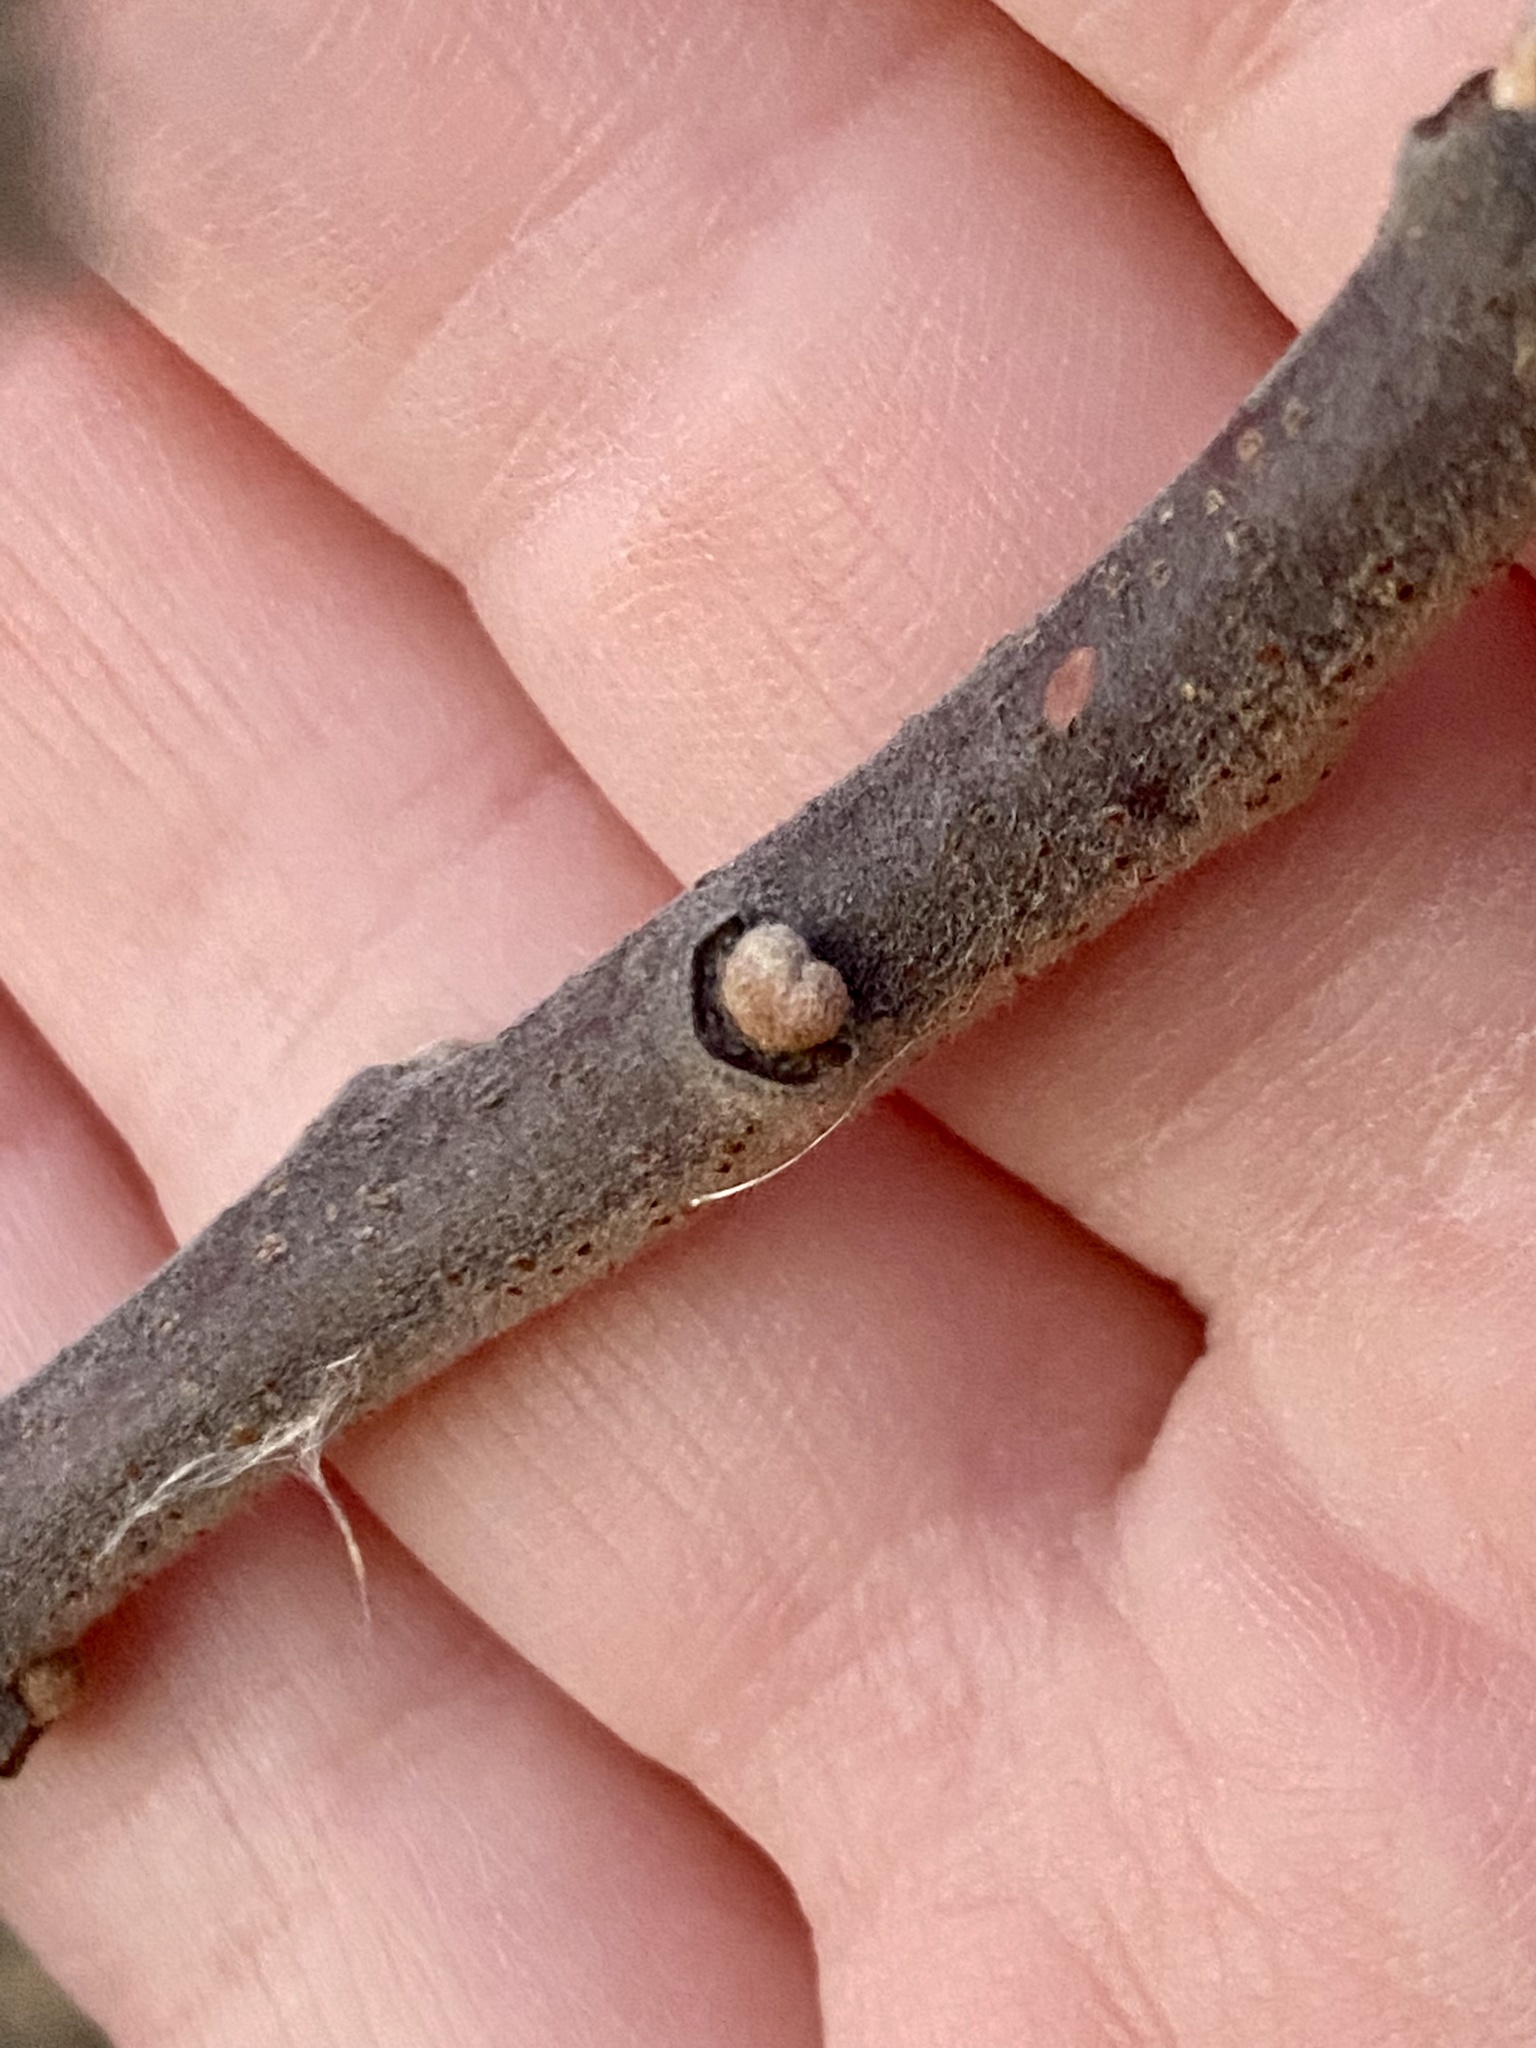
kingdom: Plantae
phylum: Tracheophyta
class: Magnoliopsida
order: Sapindales
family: Anacardiaceae
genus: Rhus
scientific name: Rhus copallina
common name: Shining sumac
